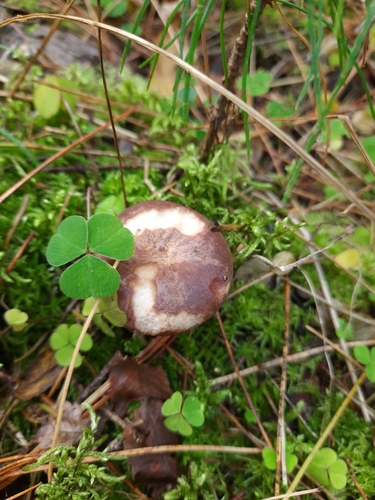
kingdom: Fungi
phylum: Basidiomycota
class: Agaricomycetes
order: Russulales
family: Russulaceae
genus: Lactarius
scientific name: Lactarius trivialis
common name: Tacked milkcap
